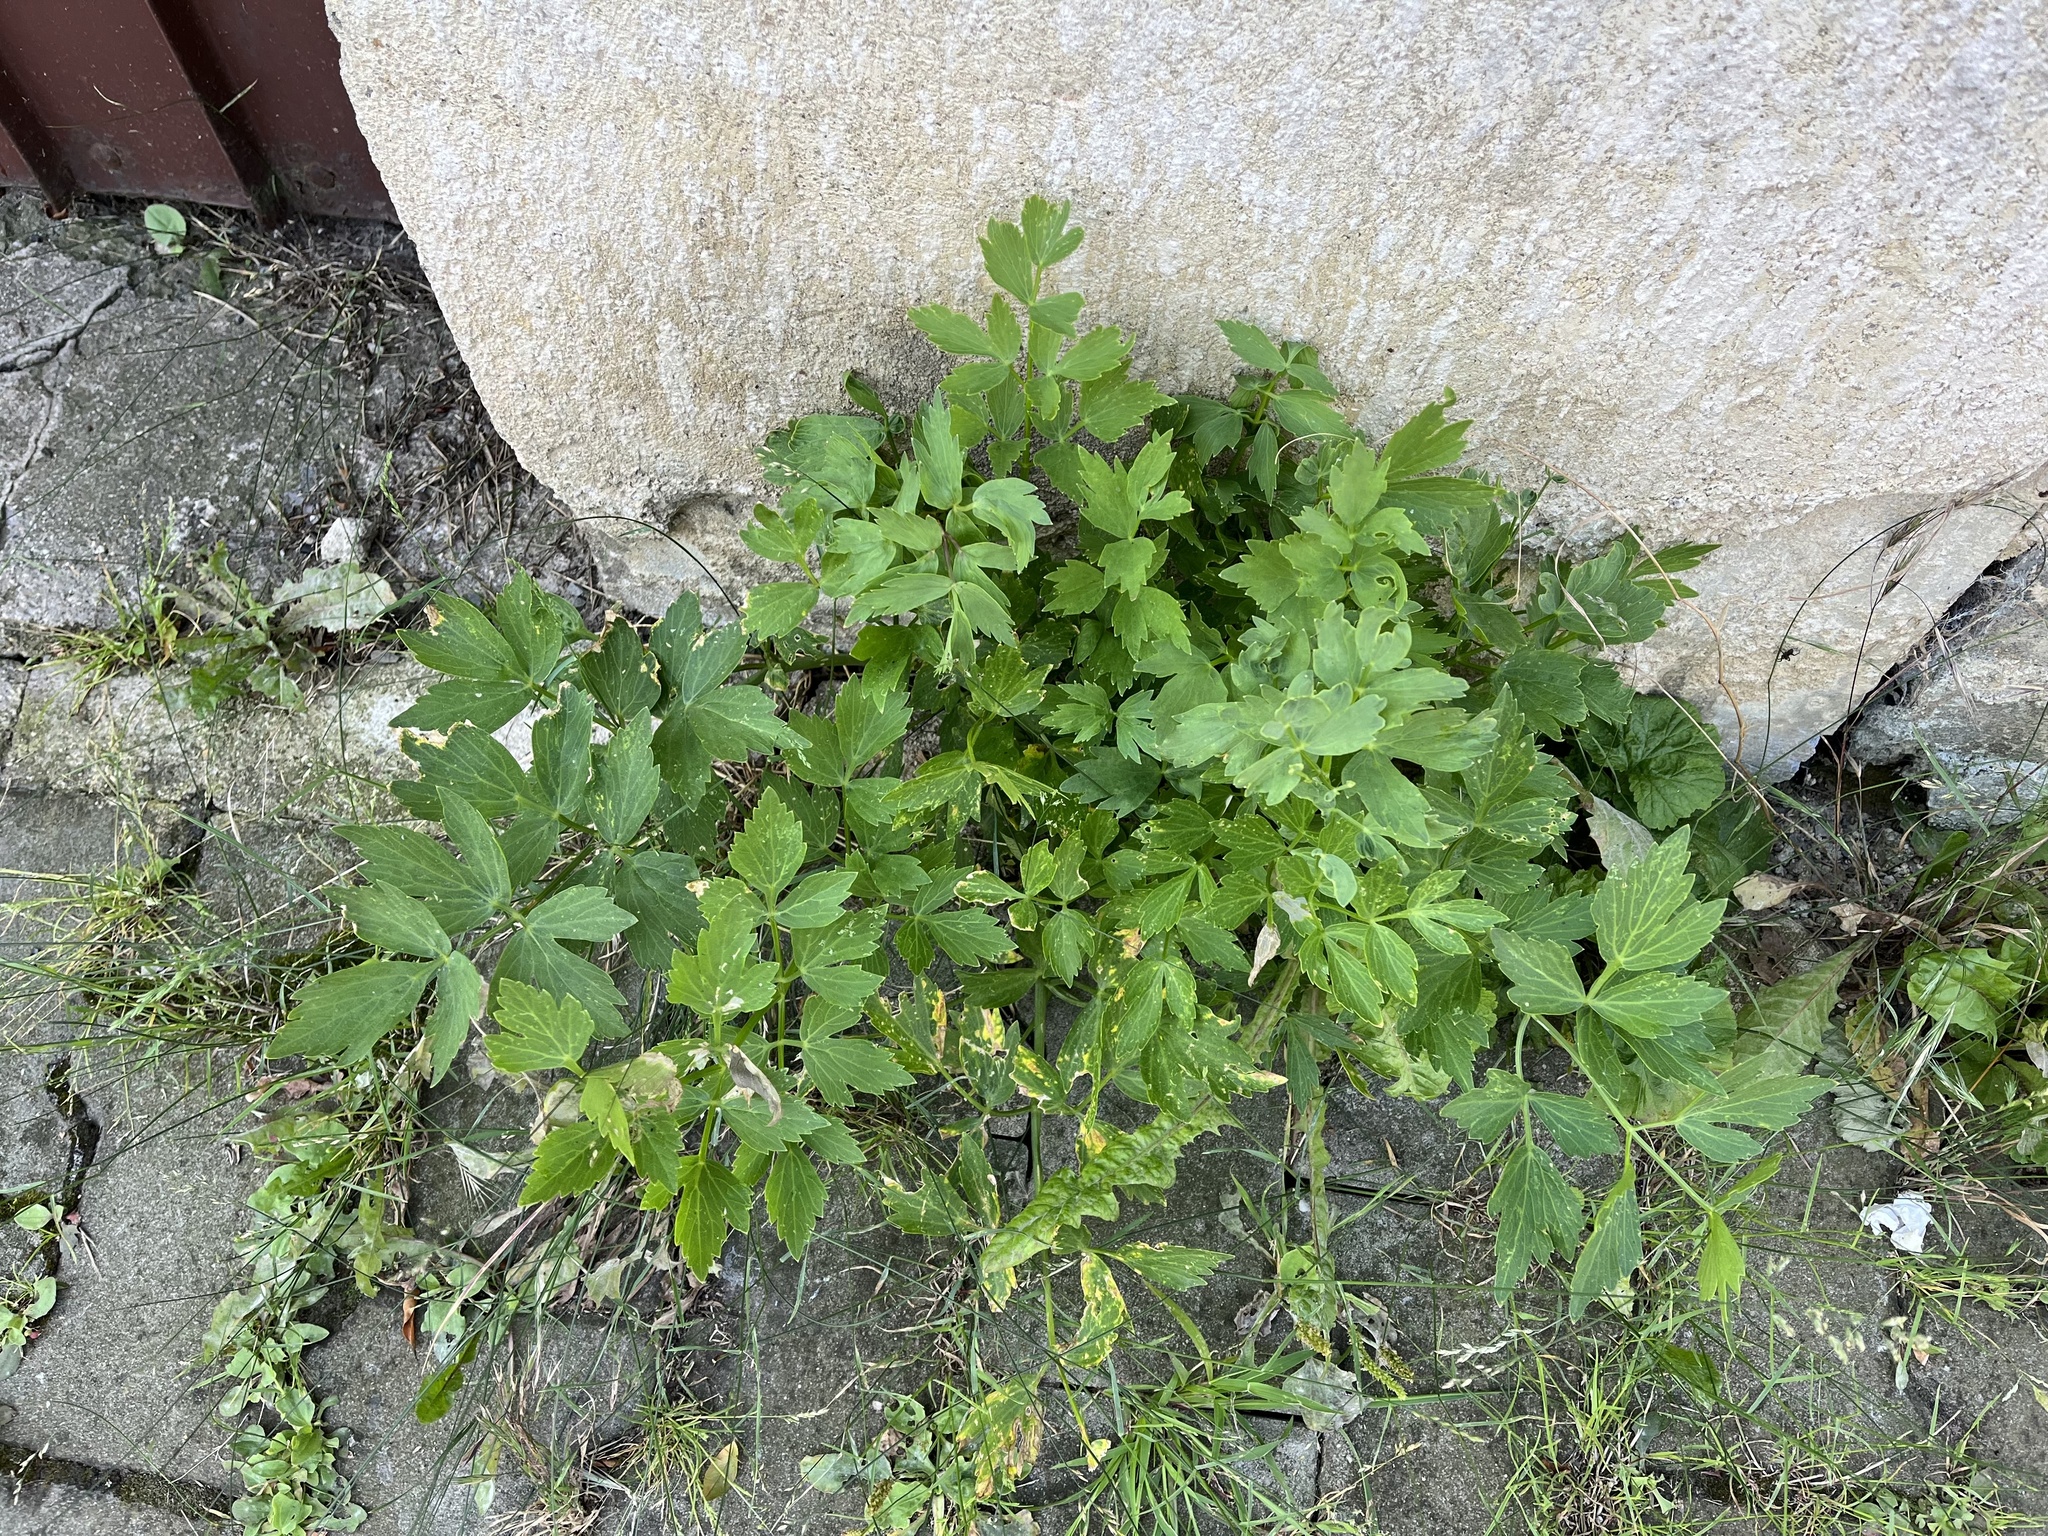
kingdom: Plantae
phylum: Tracheophyta
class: Magnoliopsida
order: Apiales
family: Apiaceae
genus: Levisticum
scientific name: Levisticum officinale
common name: Lovage
